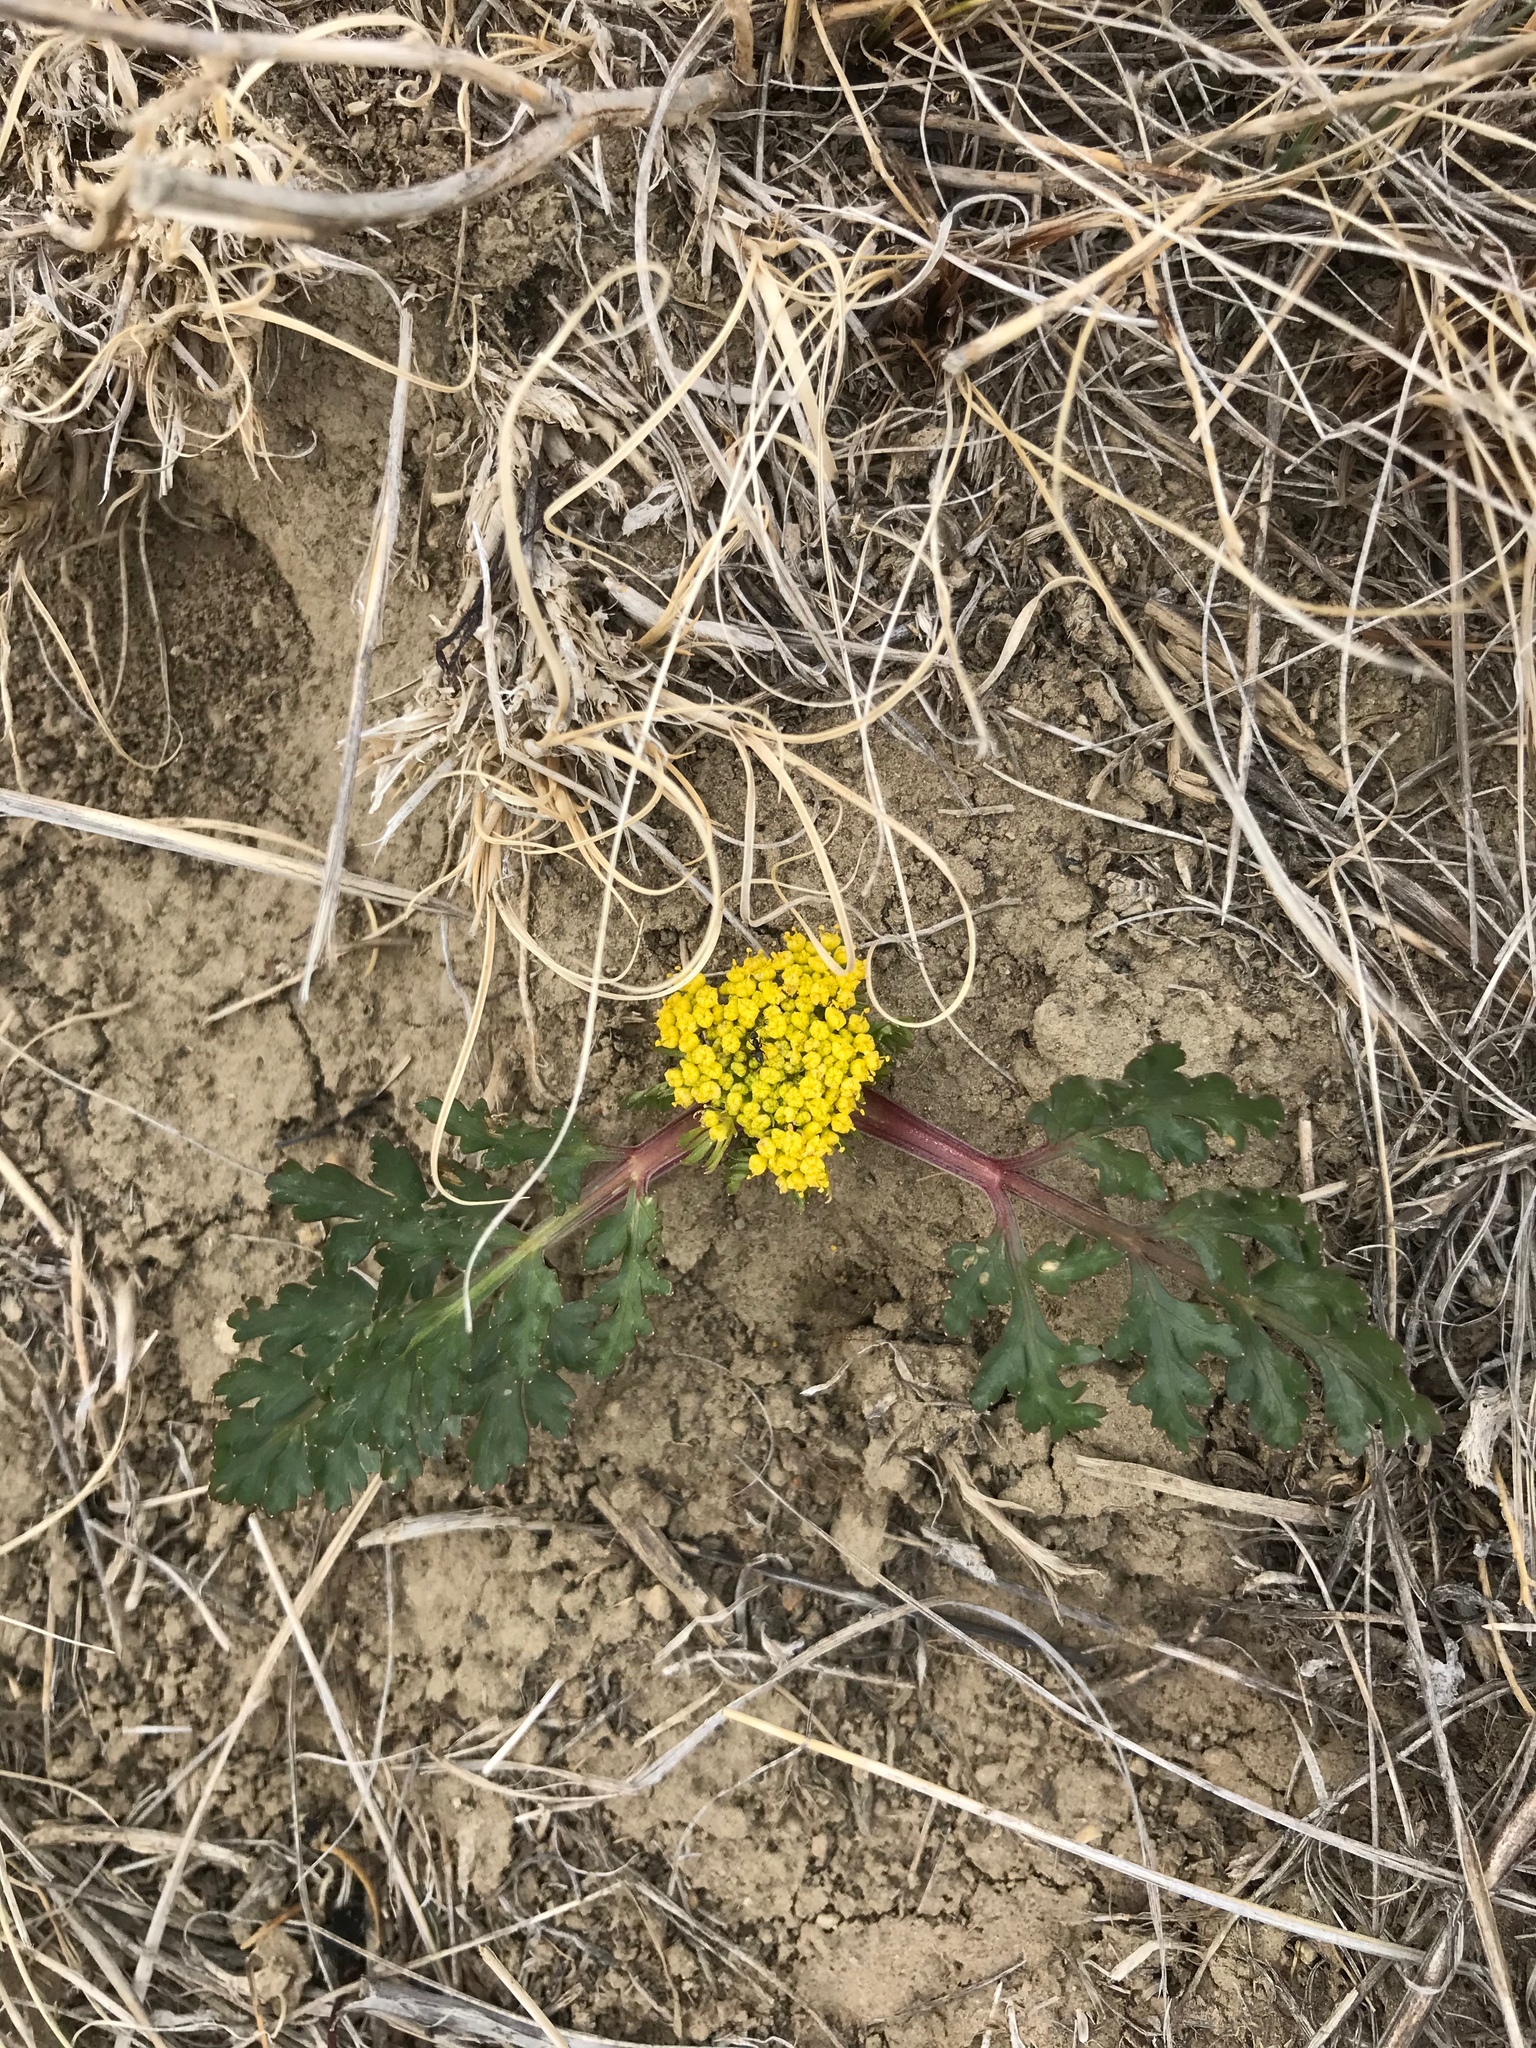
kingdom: Plantae
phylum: Tracheophyta
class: Magnoliopsida
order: Apiales
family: Apiaceae
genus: Musineon
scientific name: Musineon divaricatum
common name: Plains musineon
